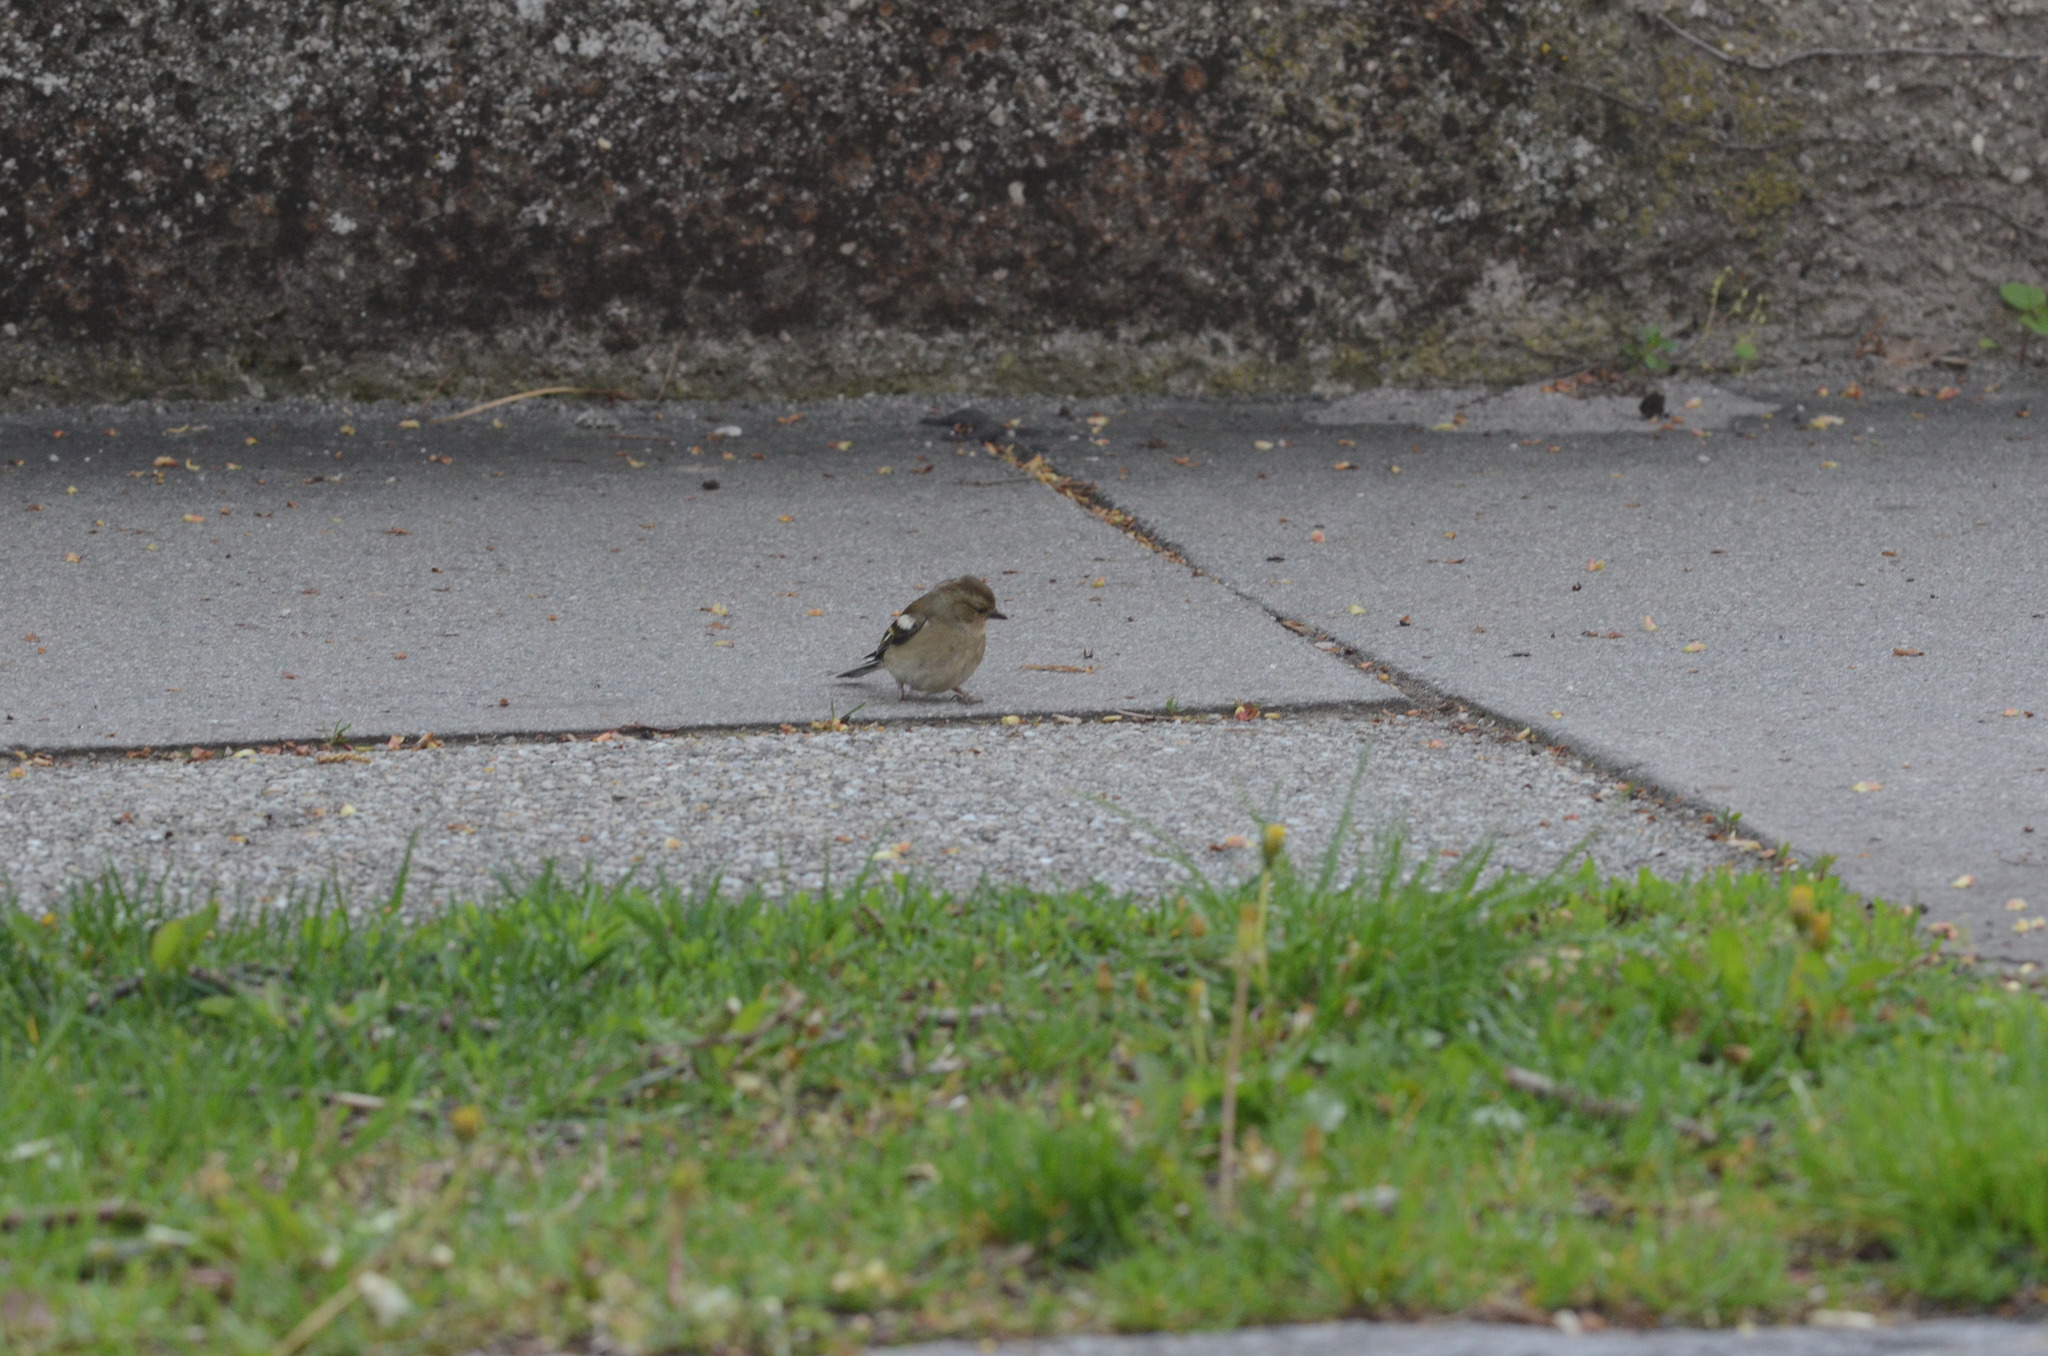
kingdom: Animalia
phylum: Chordata
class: Aves
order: Passeriformes
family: Fringillidae
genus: Fringilla
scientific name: Fringilla coelebs
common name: Common chaffinch
